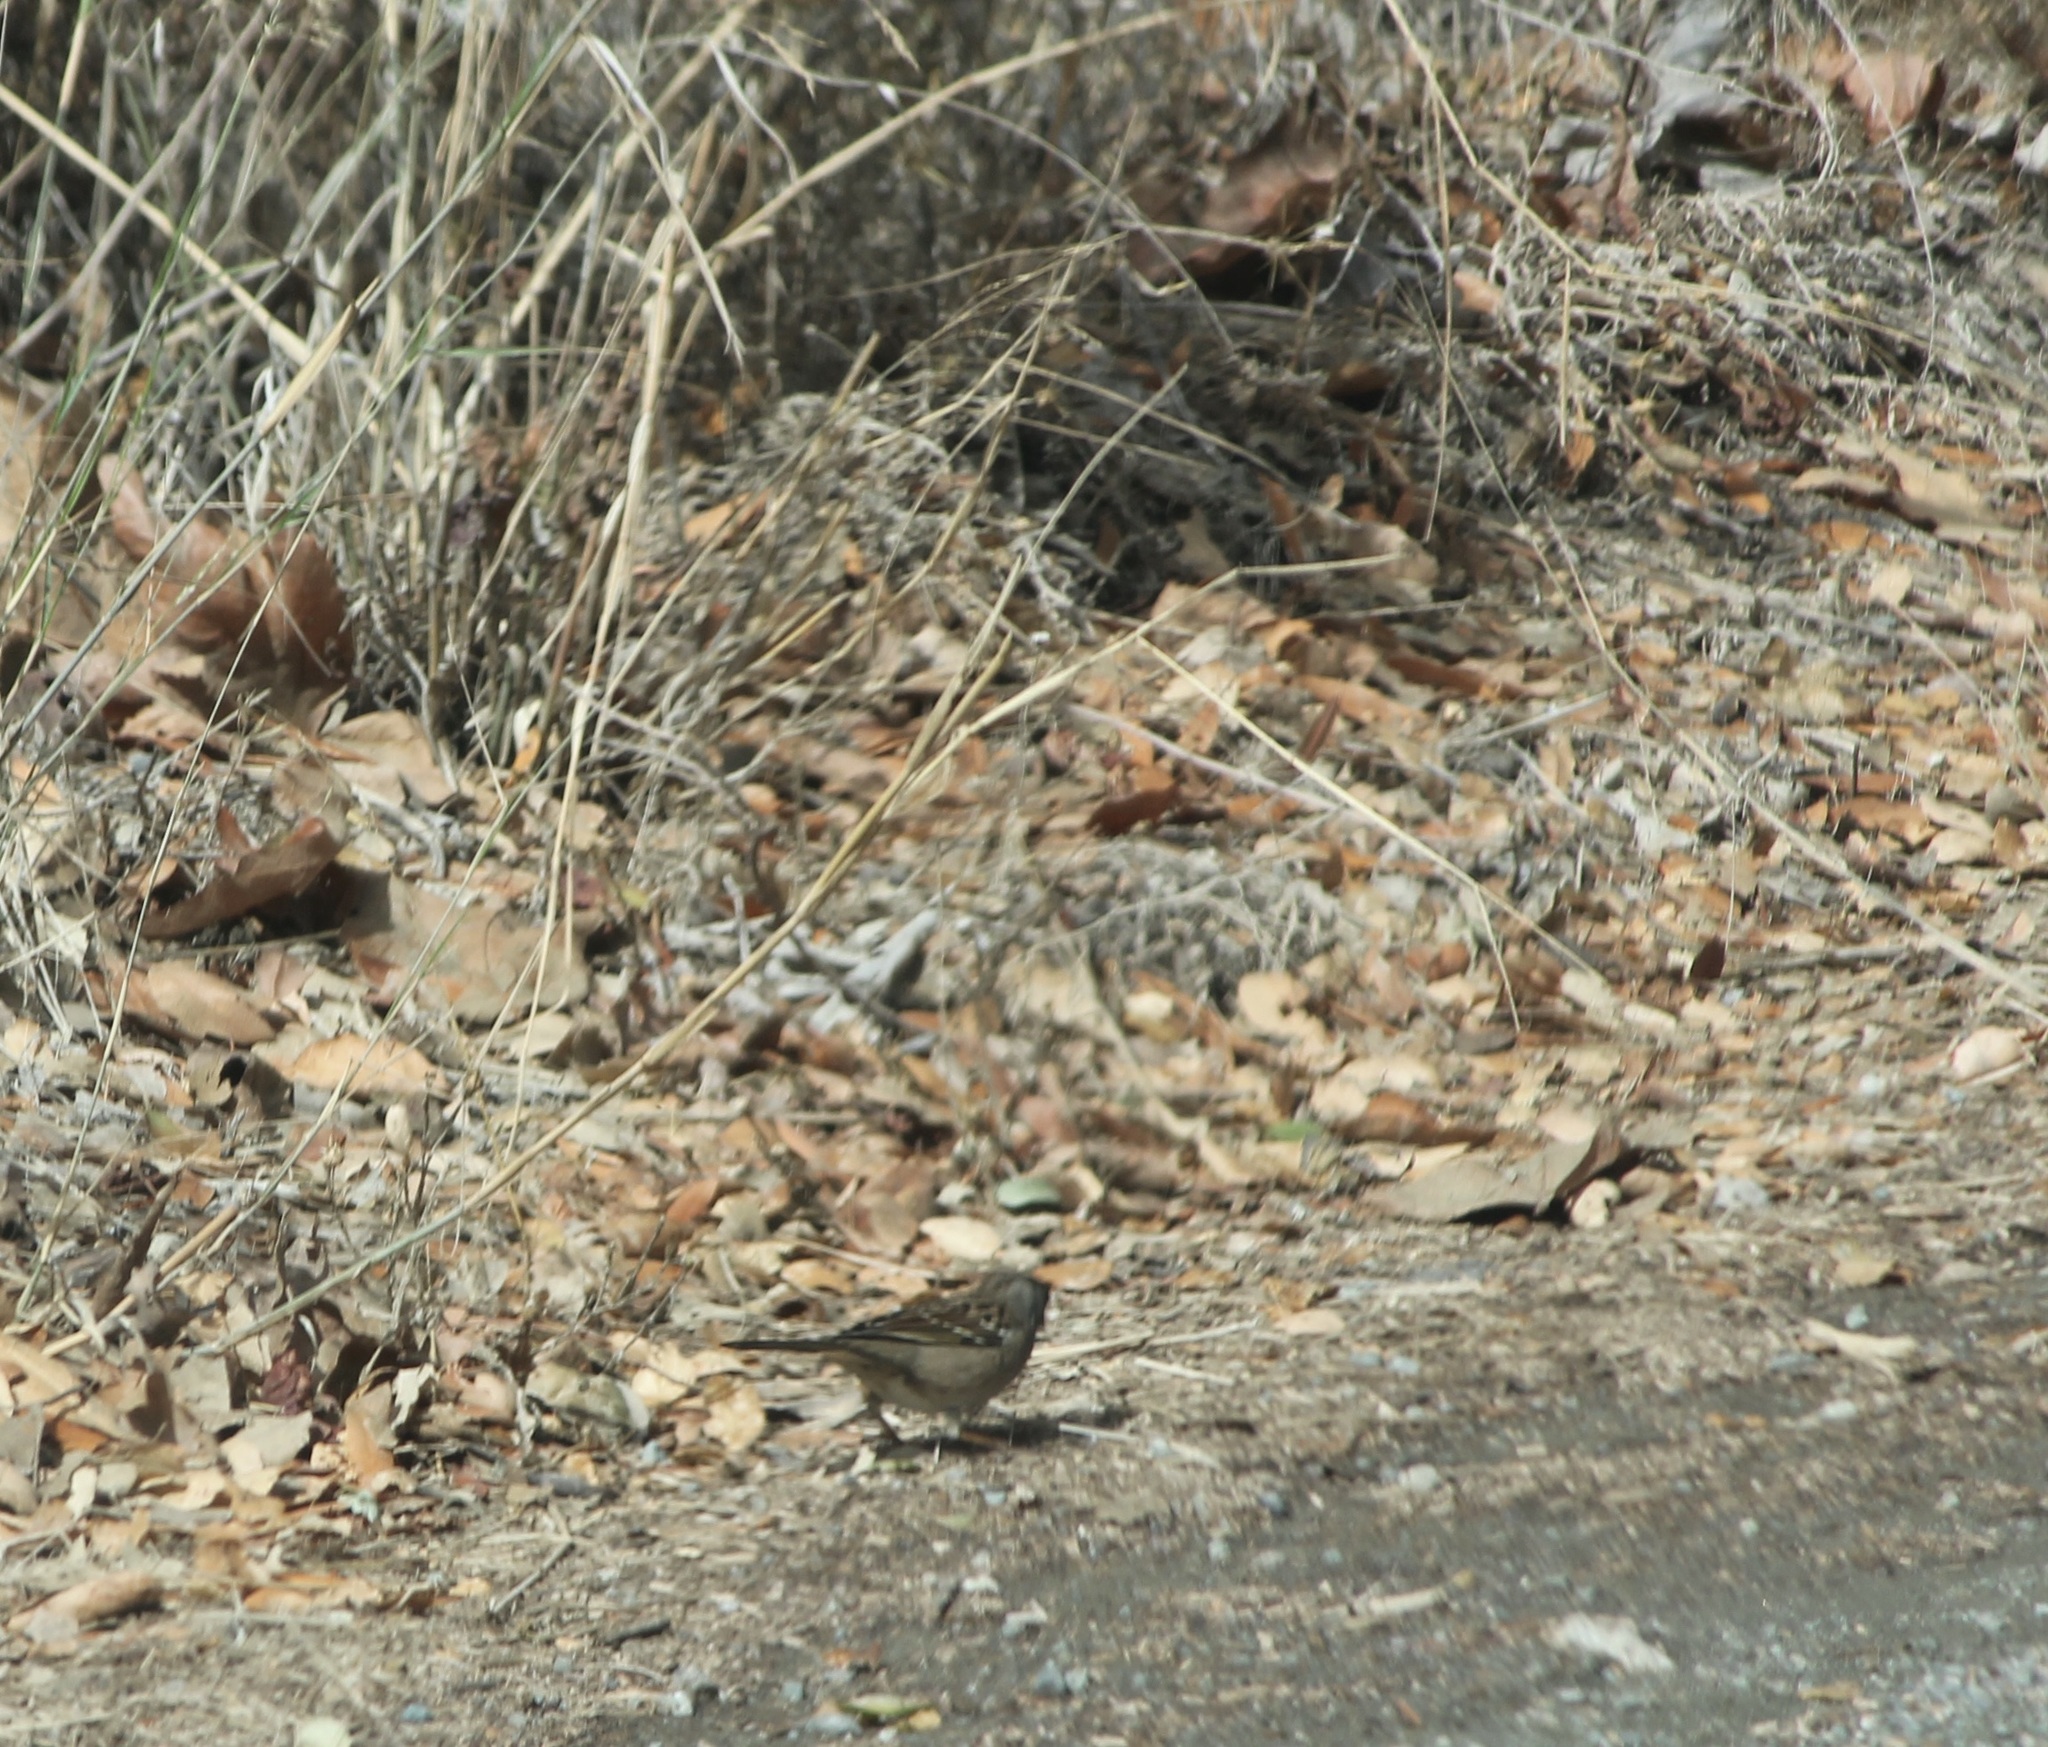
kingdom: Animalia
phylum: Chordata
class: Aves
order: Passeriformes
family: Passerellidae
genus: Zonotrichia
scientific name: Zonotrichia atricapilla
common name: Golden-crowned sparrow
